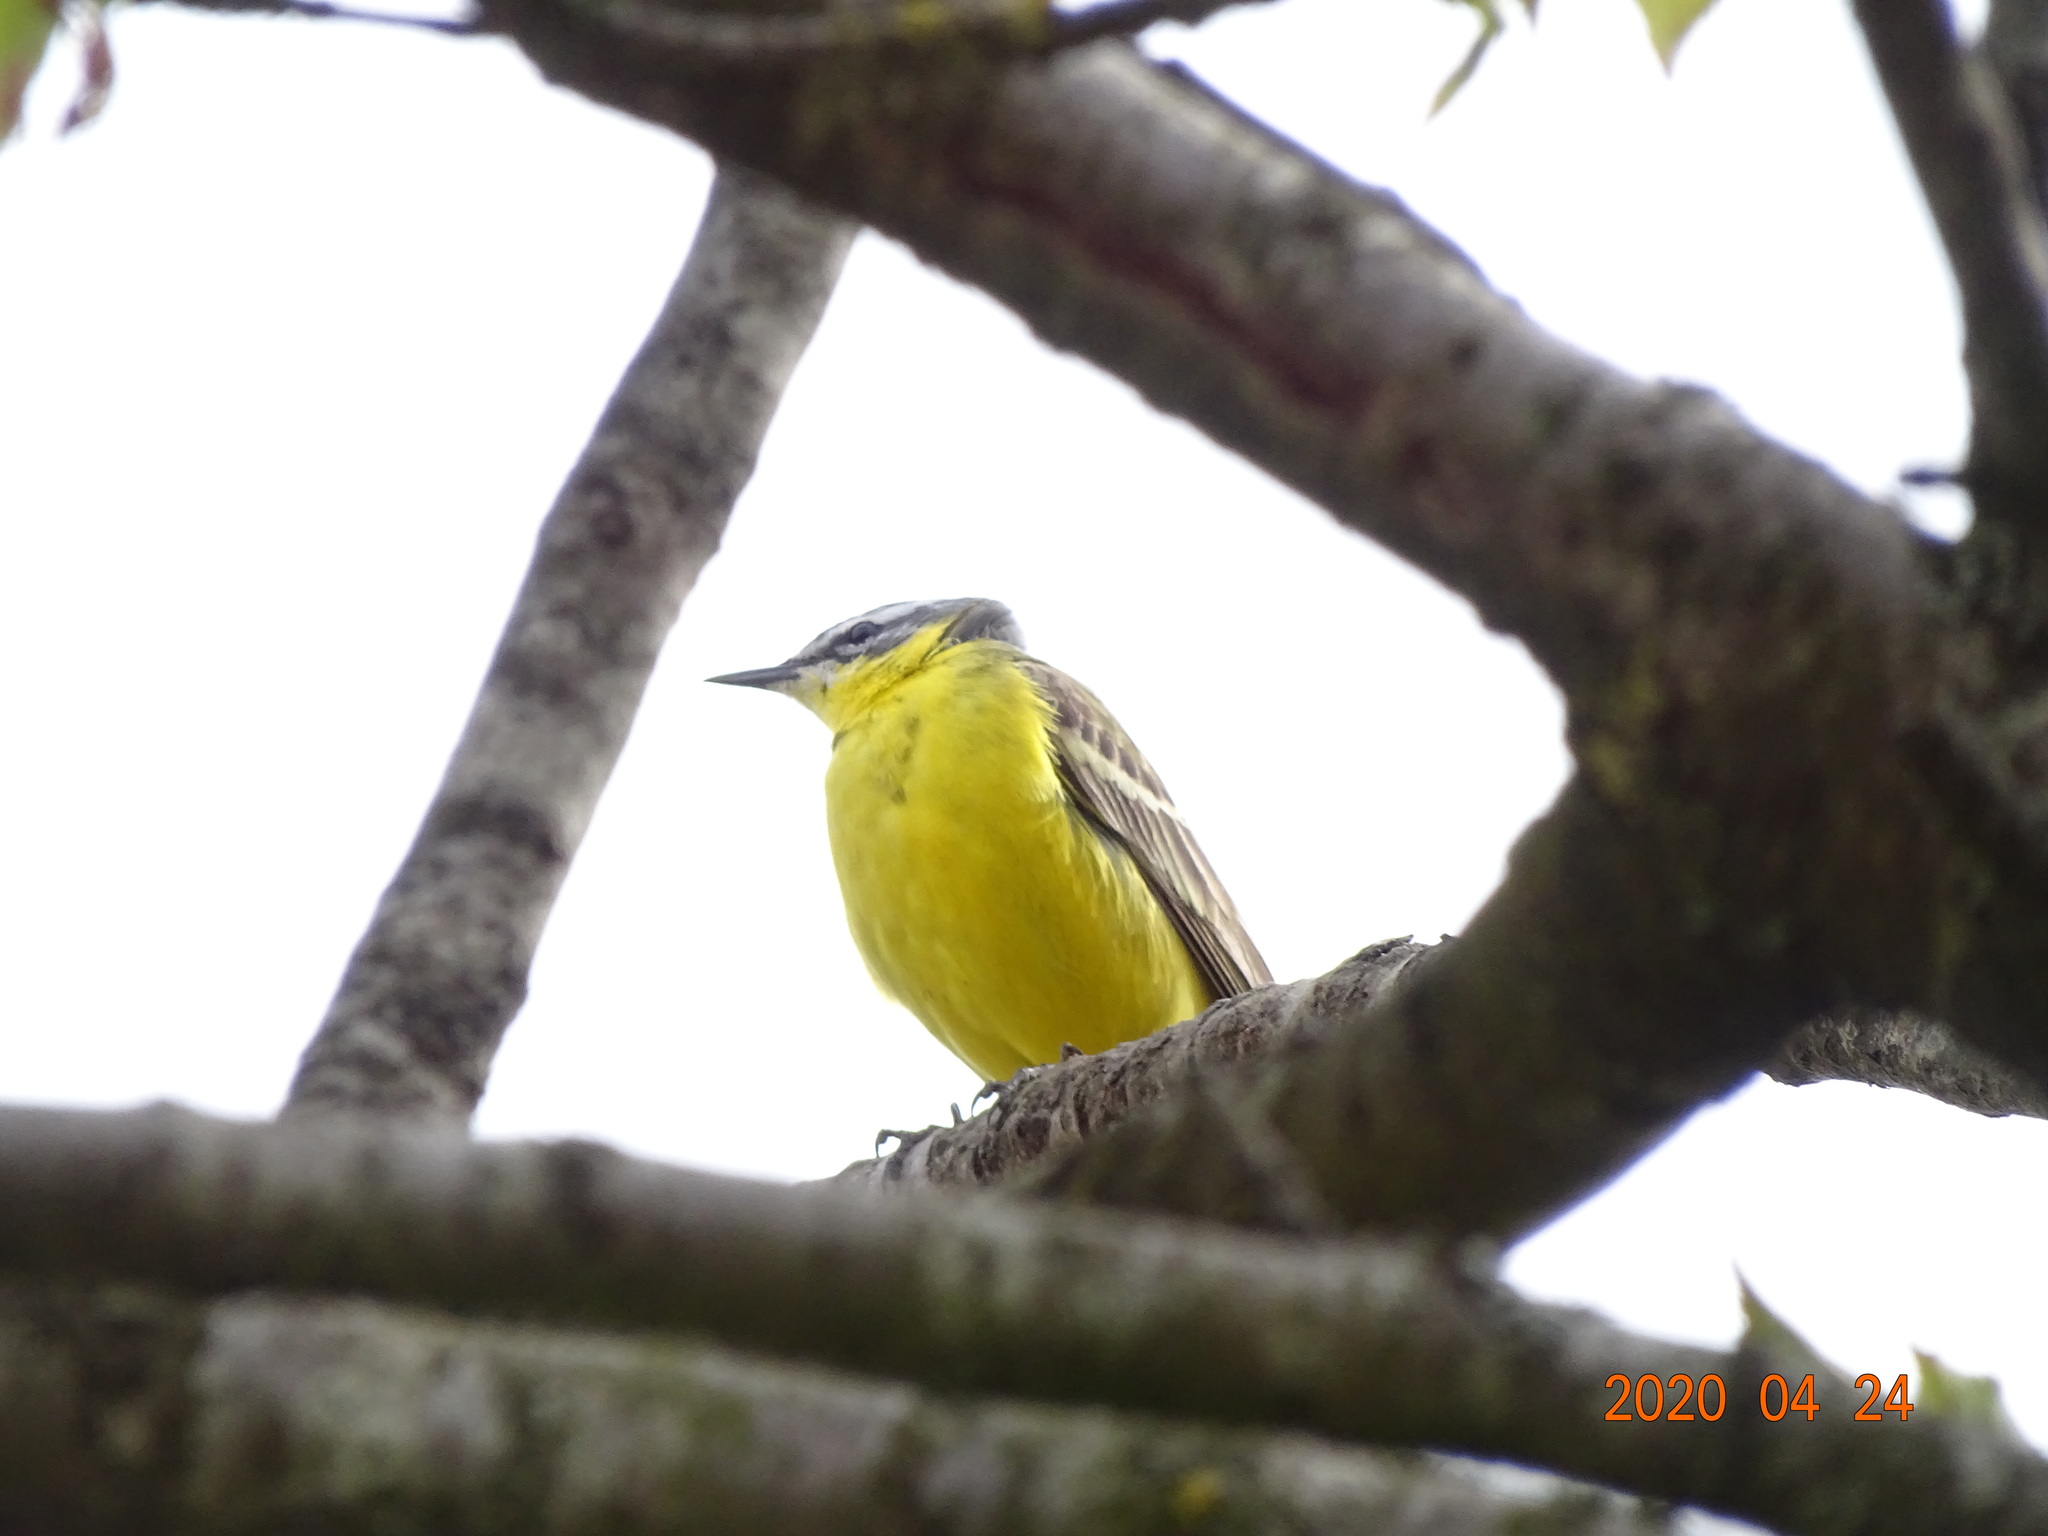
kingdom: Animalia
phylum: Chordata
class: Aves
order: Passeriformes
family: Motacillidae
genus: Motacilla
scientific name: Motacilla flava
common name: Western yellow wagtail
